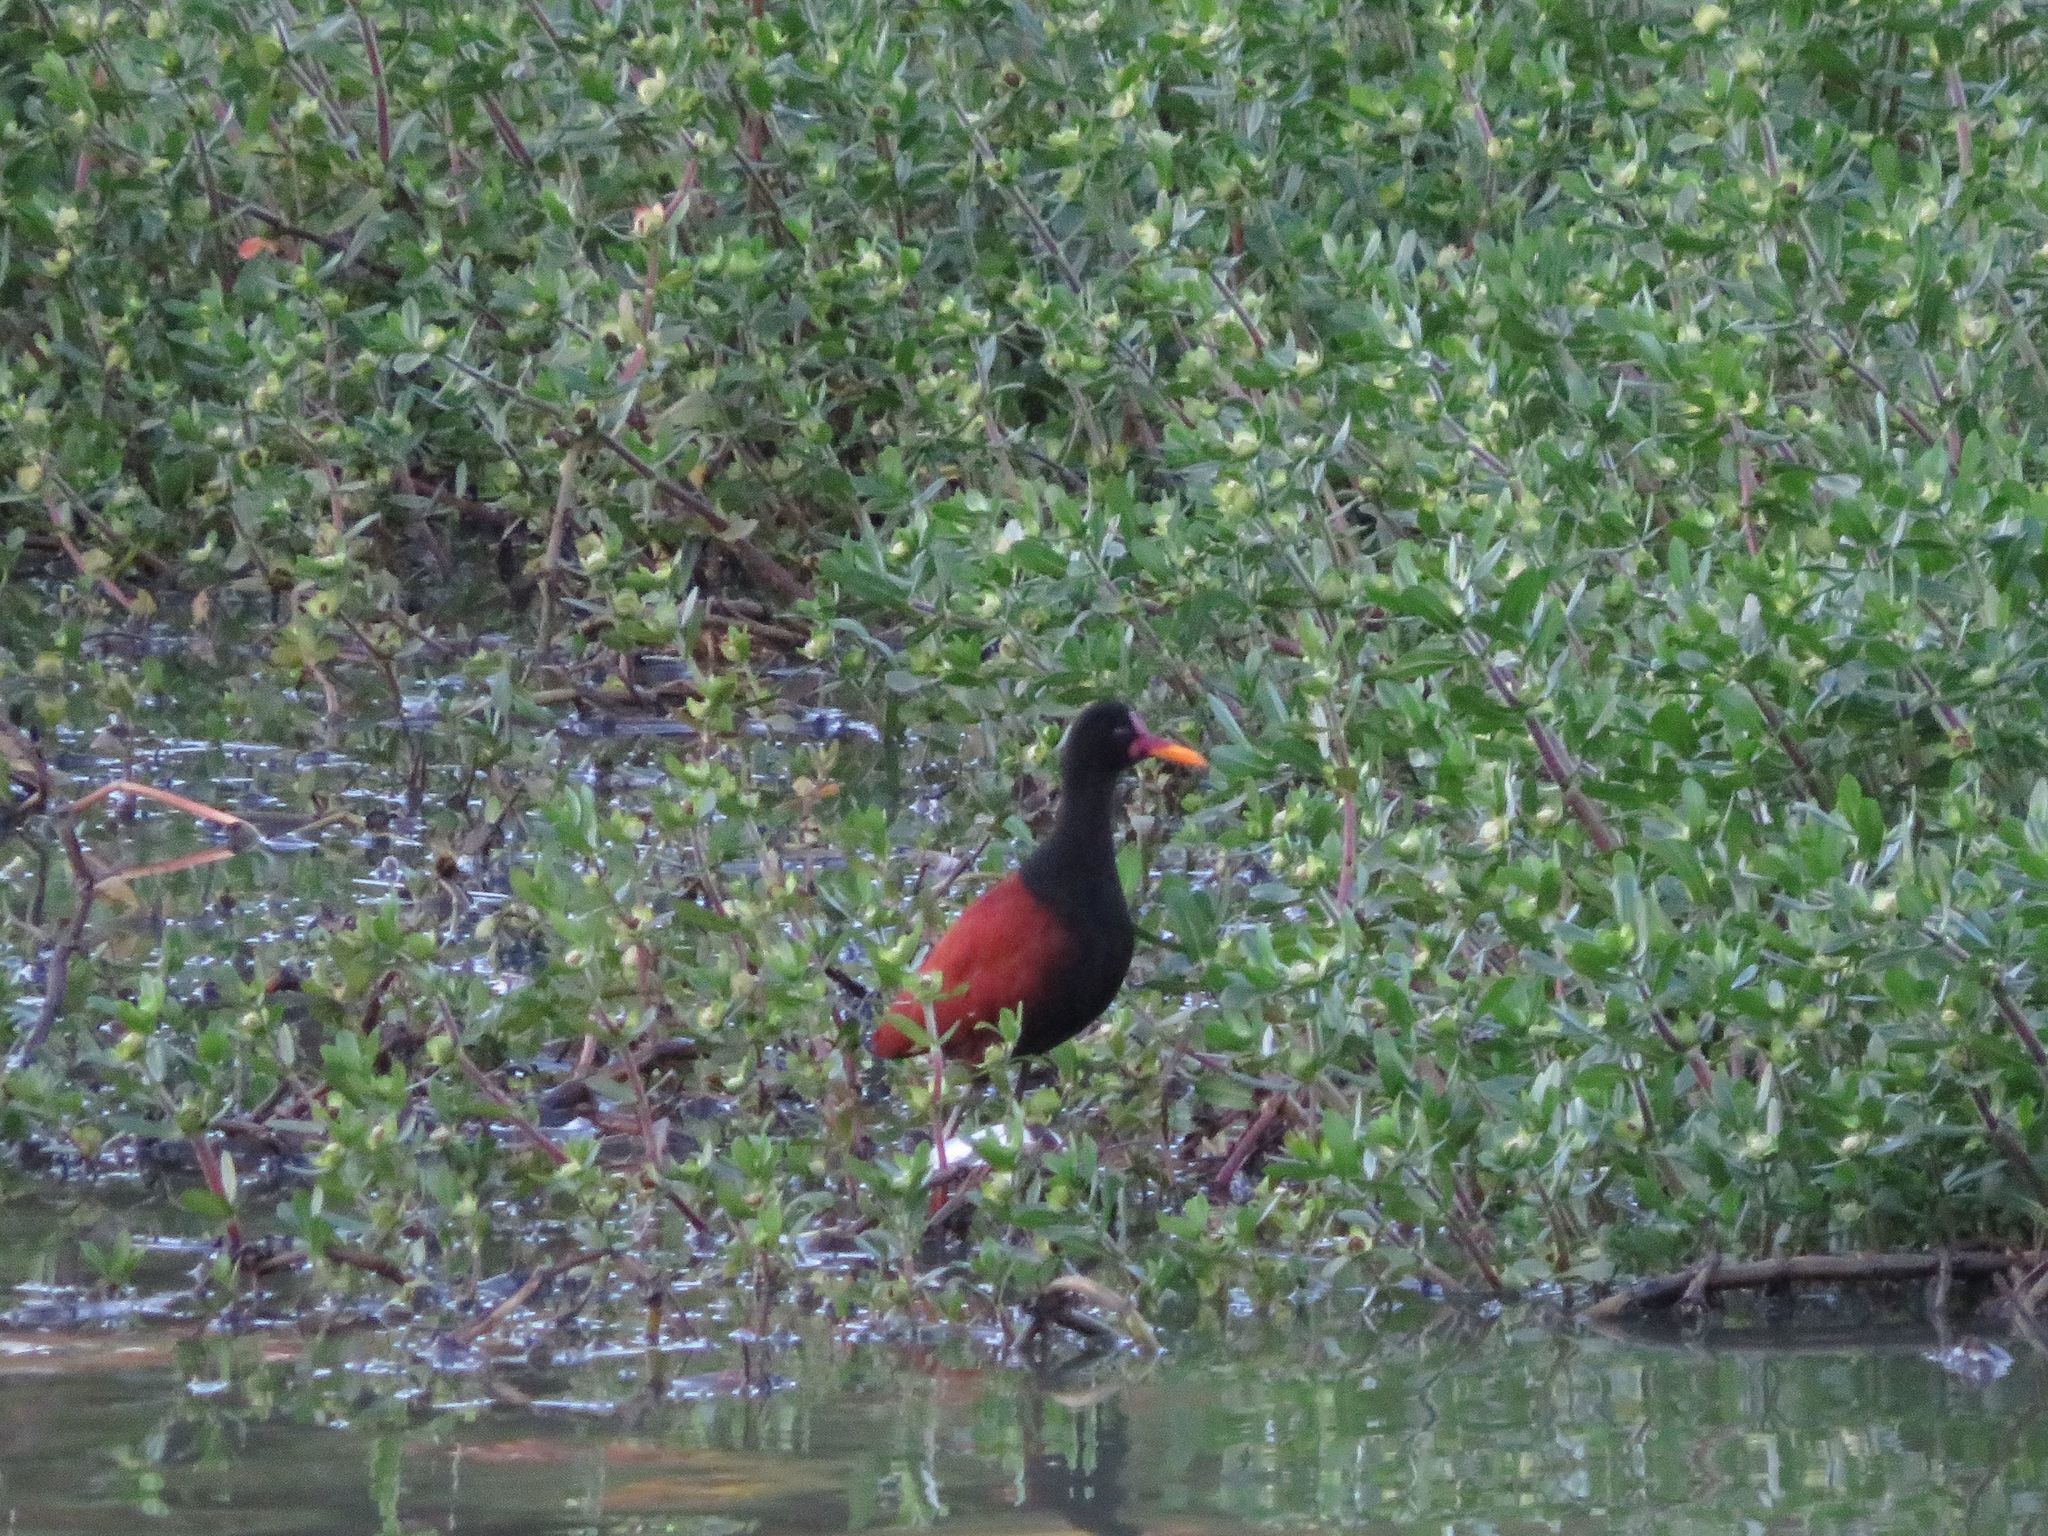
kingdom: Animalia
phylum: Chordata
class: Aves
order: Charadriiformes
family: Jacanidae
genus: Jacana
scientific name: Jacana jacana
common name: Wattled jacana
